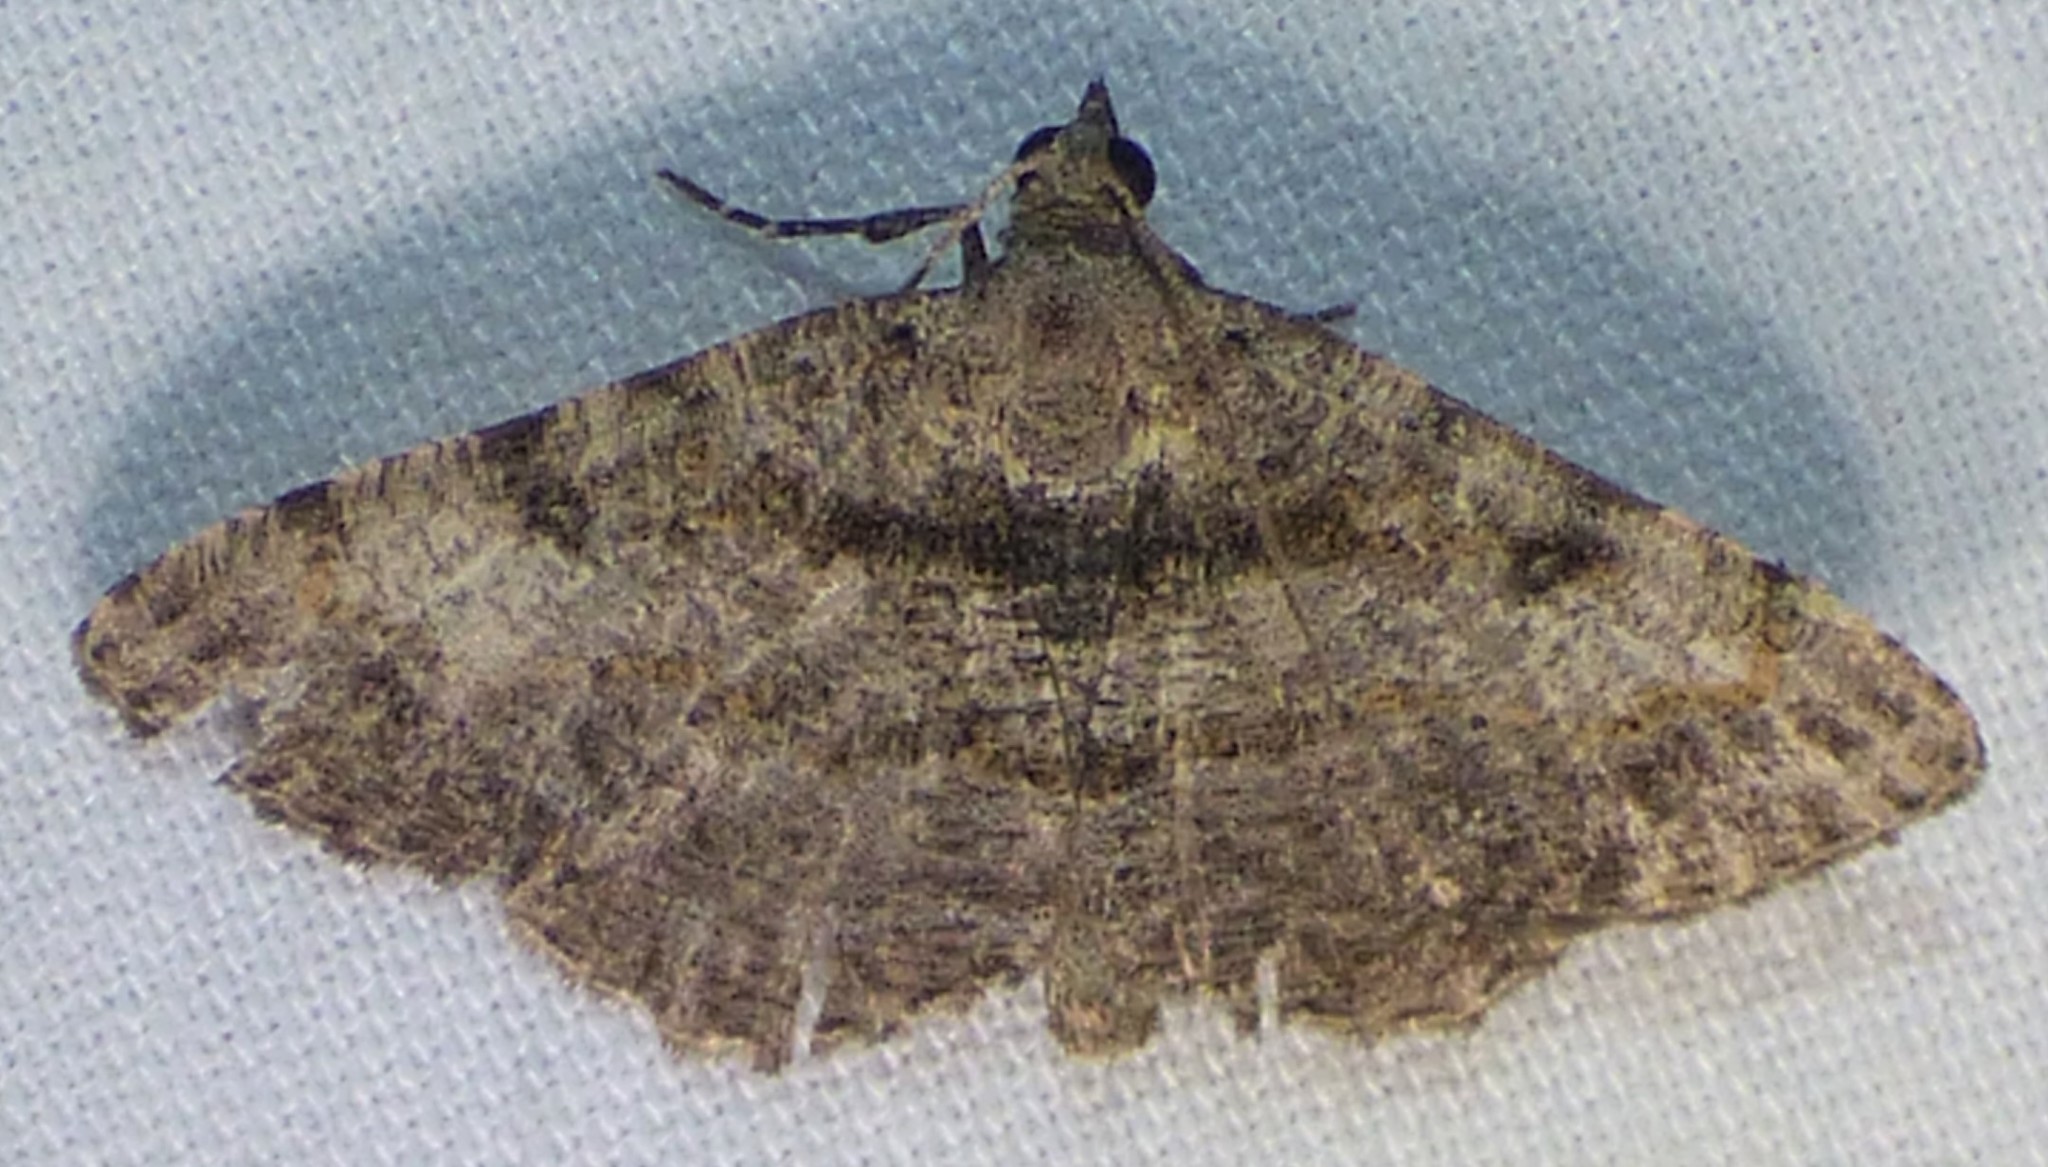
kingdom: Animalia
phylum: Arthropoda
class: Insecta
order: Lepidoptera
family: Geometridae
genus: Digrammia
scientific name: Digrammia gnophosaria
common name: Hollow-spotted angle
